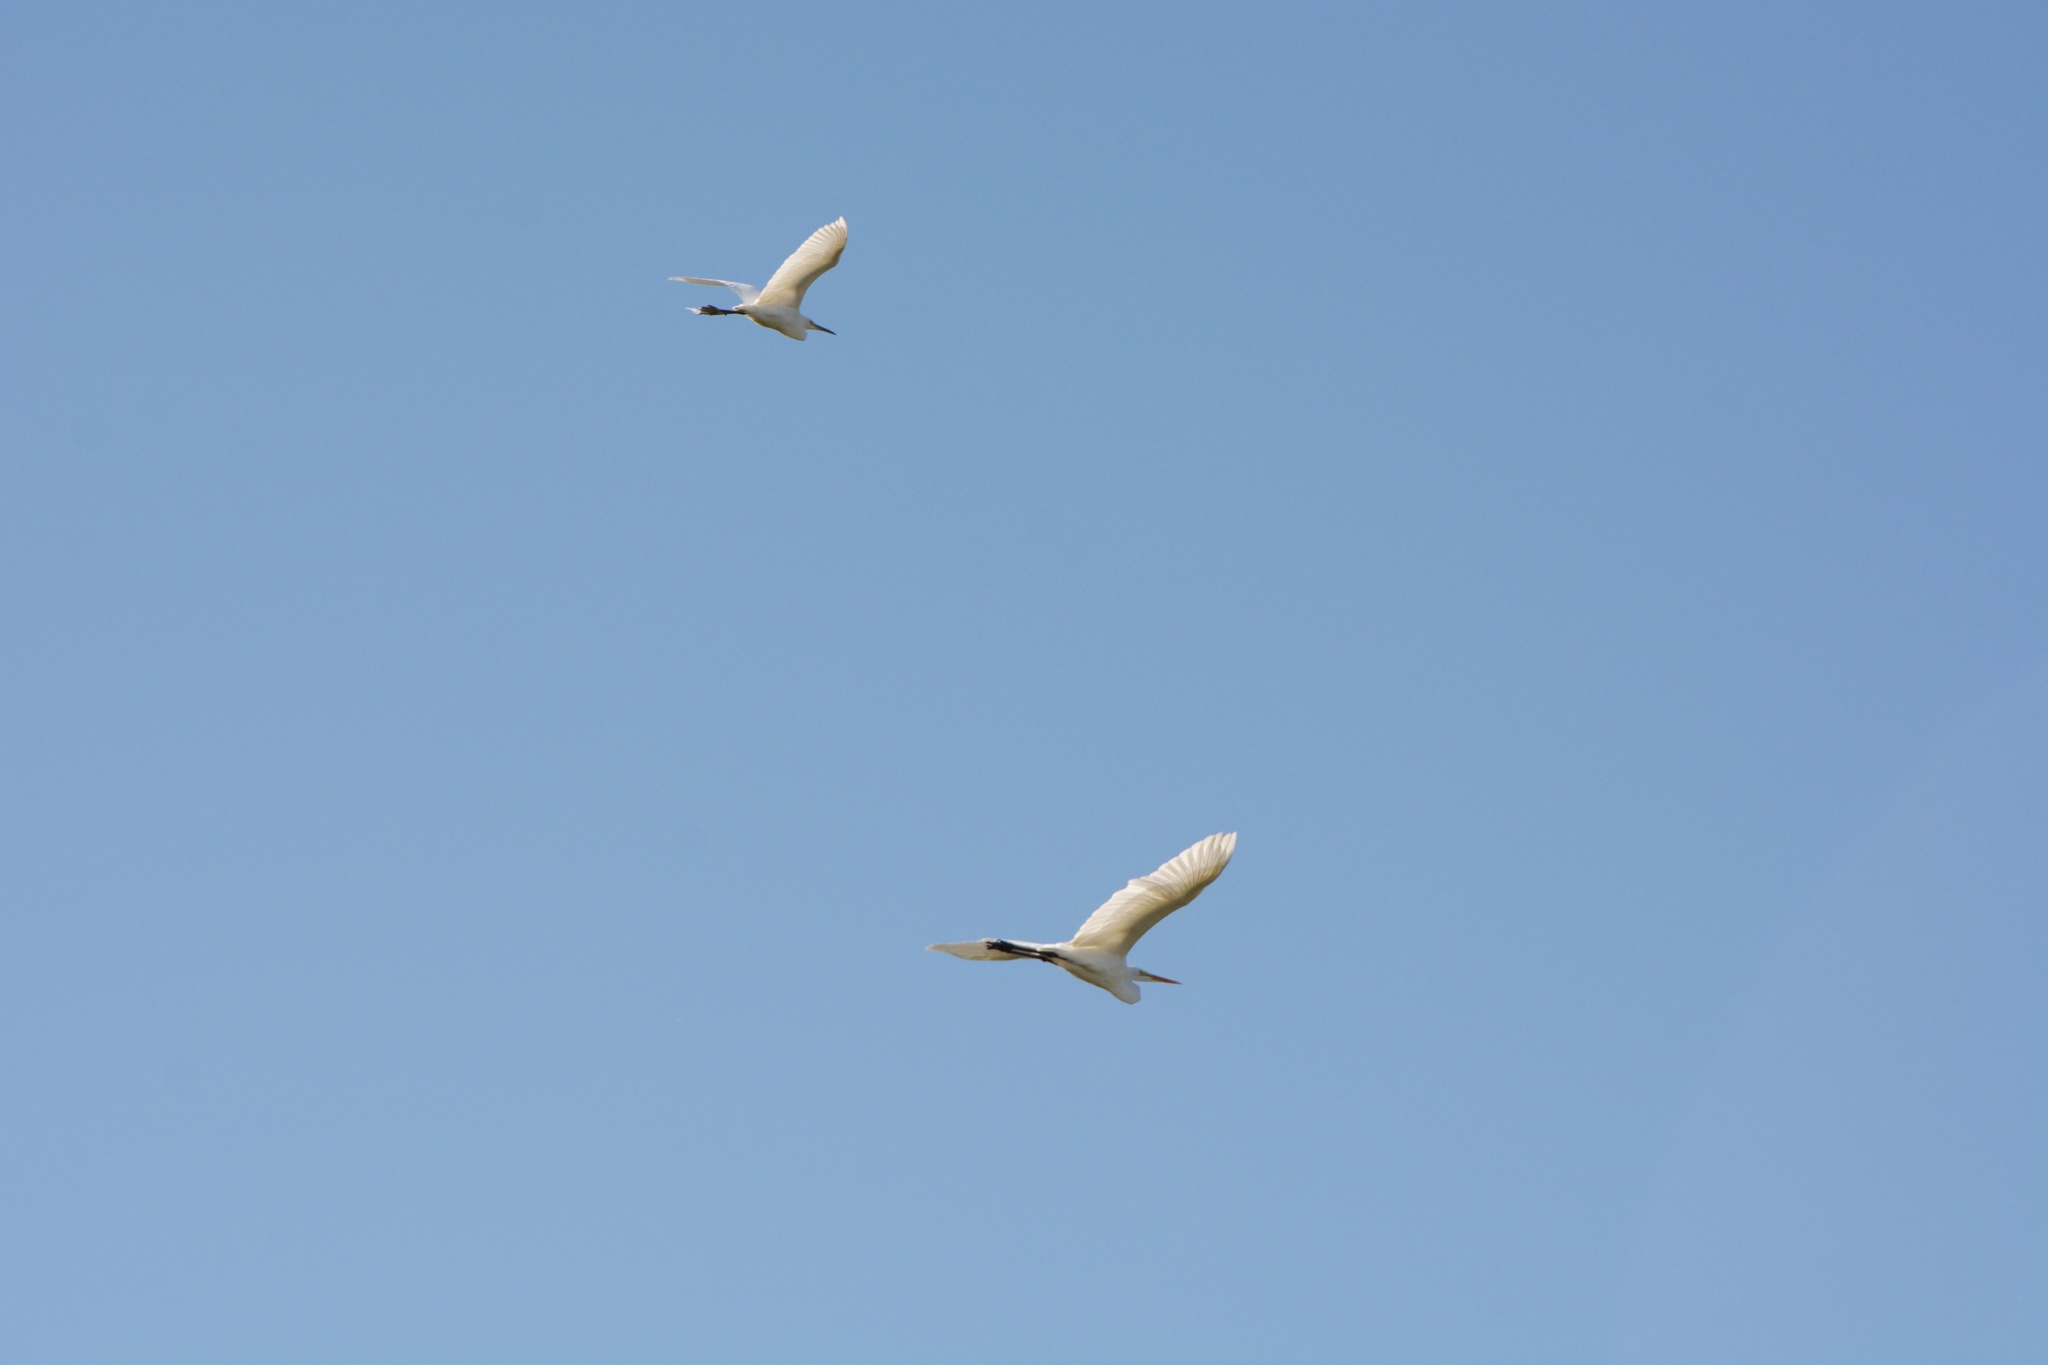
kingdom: Animalia
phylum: Chordata
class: Aves
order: Pelecaniformes
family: Ardeidae
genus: Ardea
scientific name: Ardea alba
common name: Great egret
